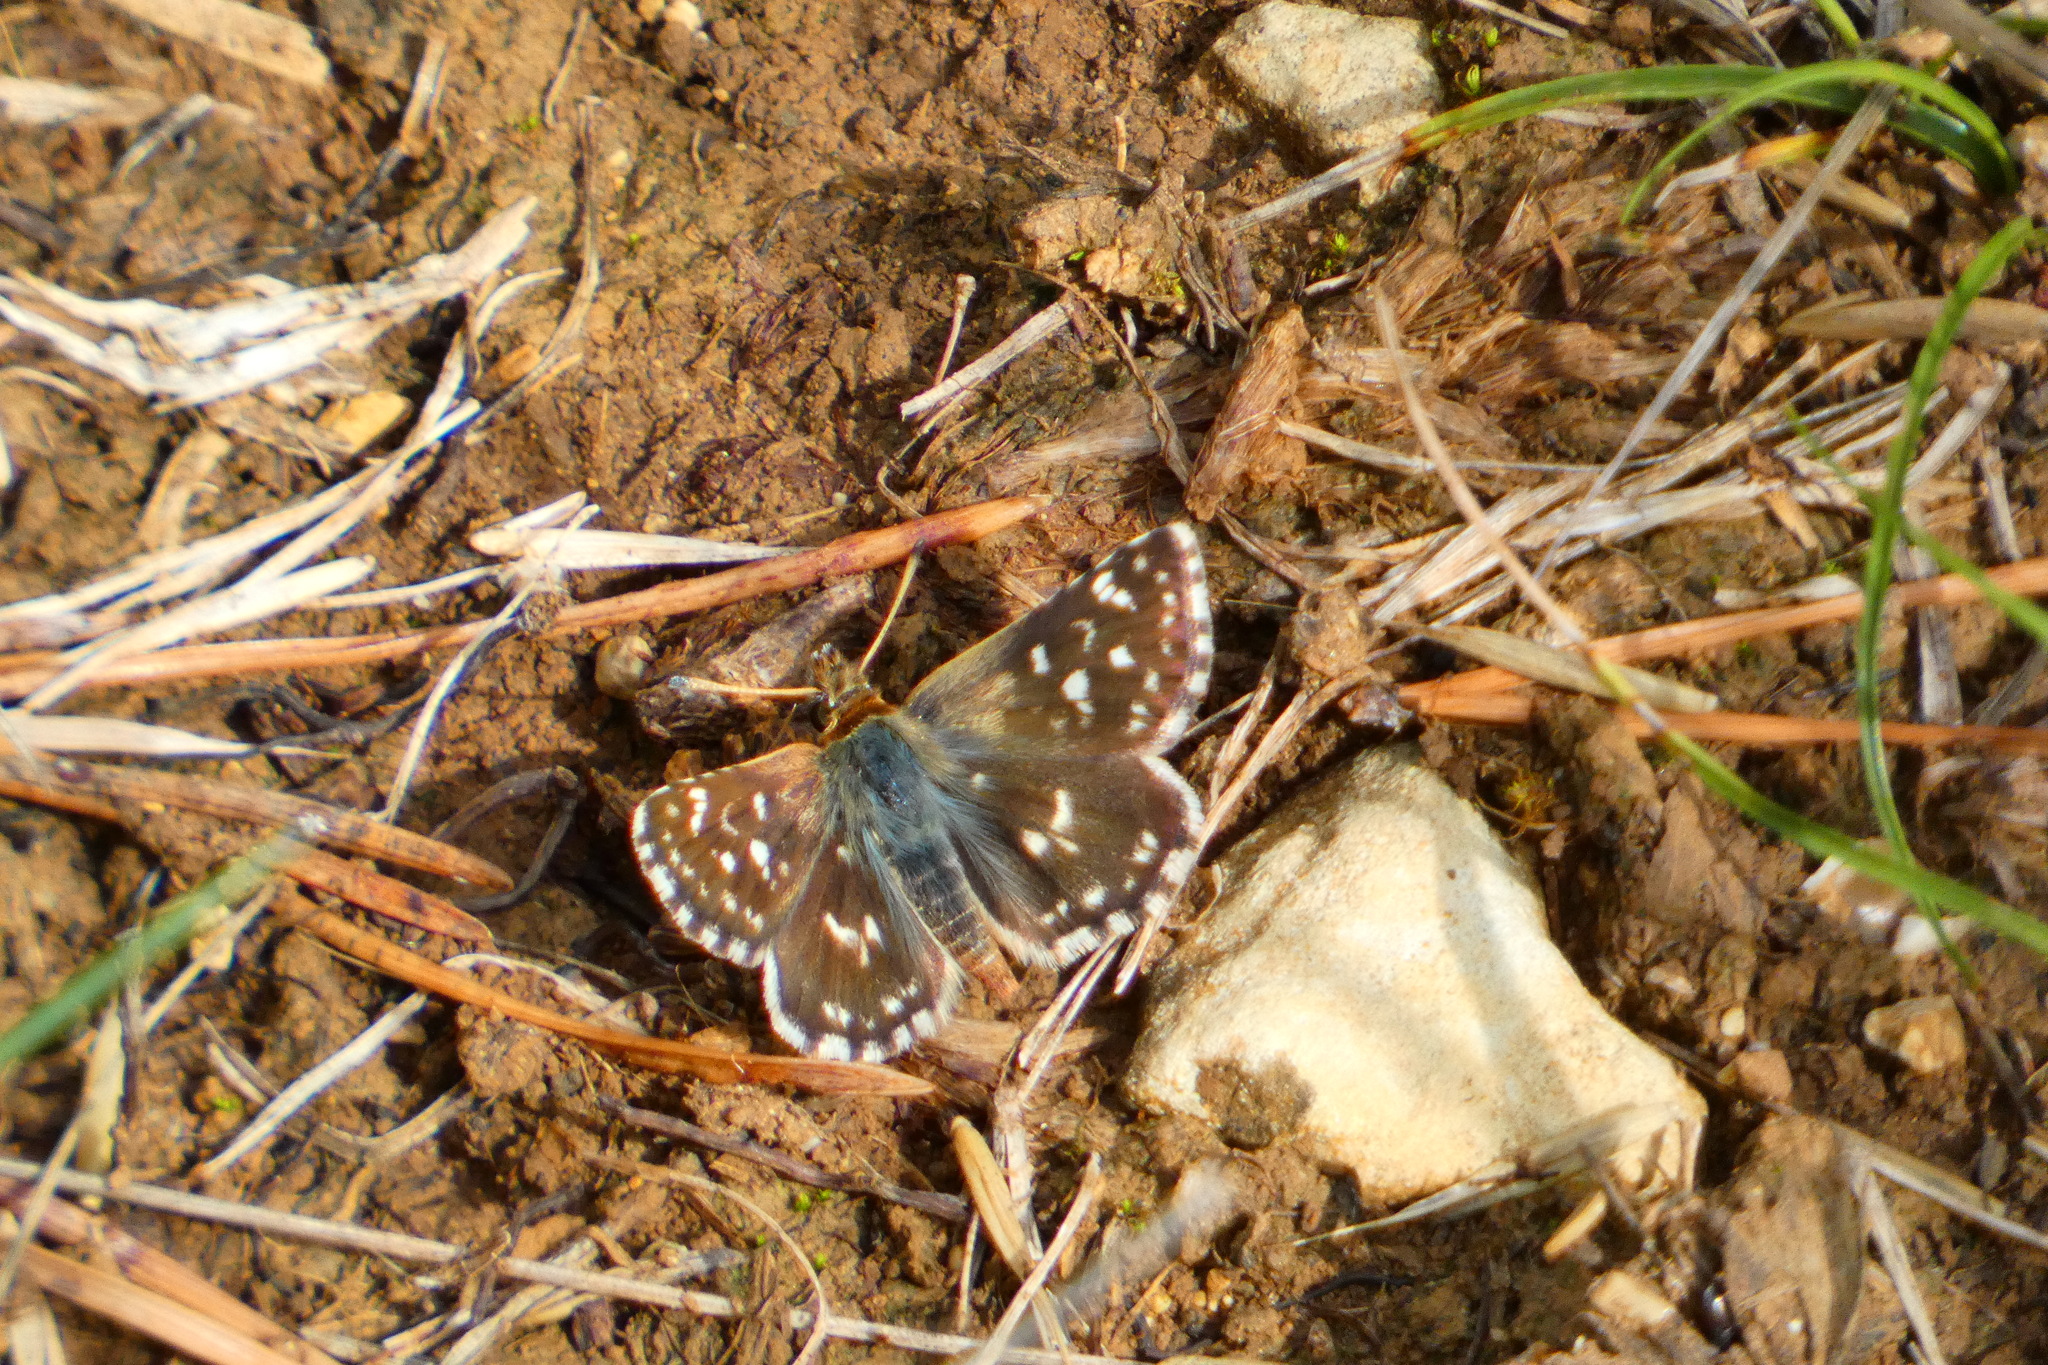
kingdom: Animalia
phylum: Arthropoda
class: Insecta
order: Lepidoptera
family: Hesperiidae
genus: Spialia
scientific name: Spialia sertorius
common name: Red underwing skipper
